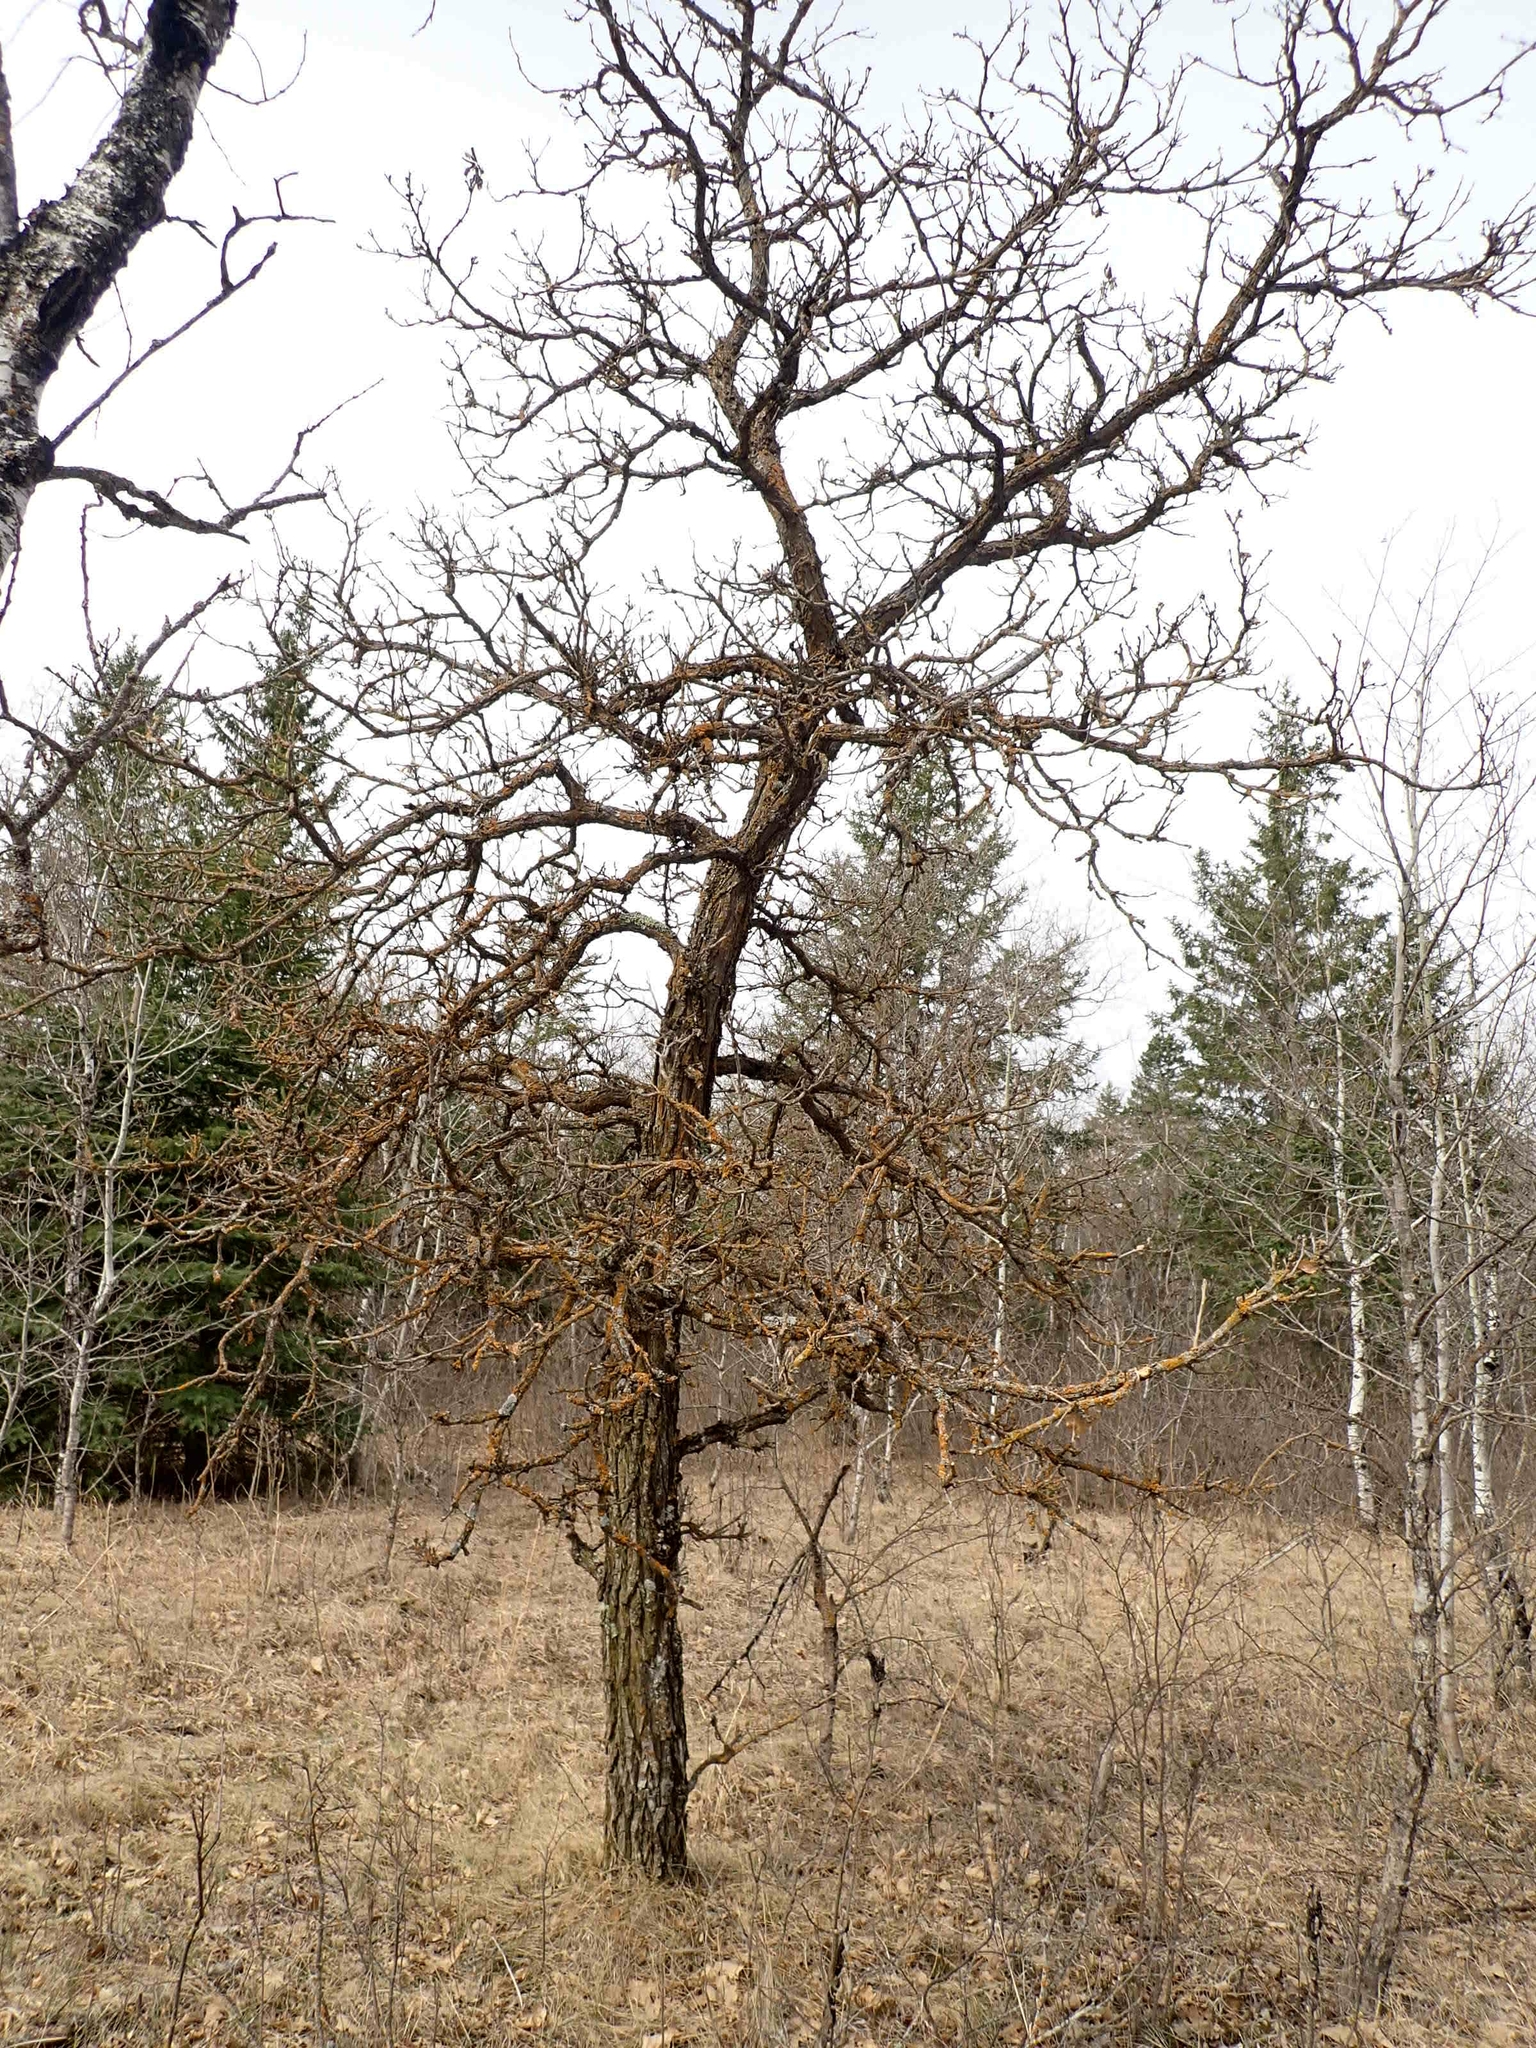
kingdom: Plantae
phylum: Tracheophyta
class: Magnoliopsida
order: Fagales
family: Fagaceae
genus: Quercus
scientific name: Quercus macrocarpa
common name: Bur oak
